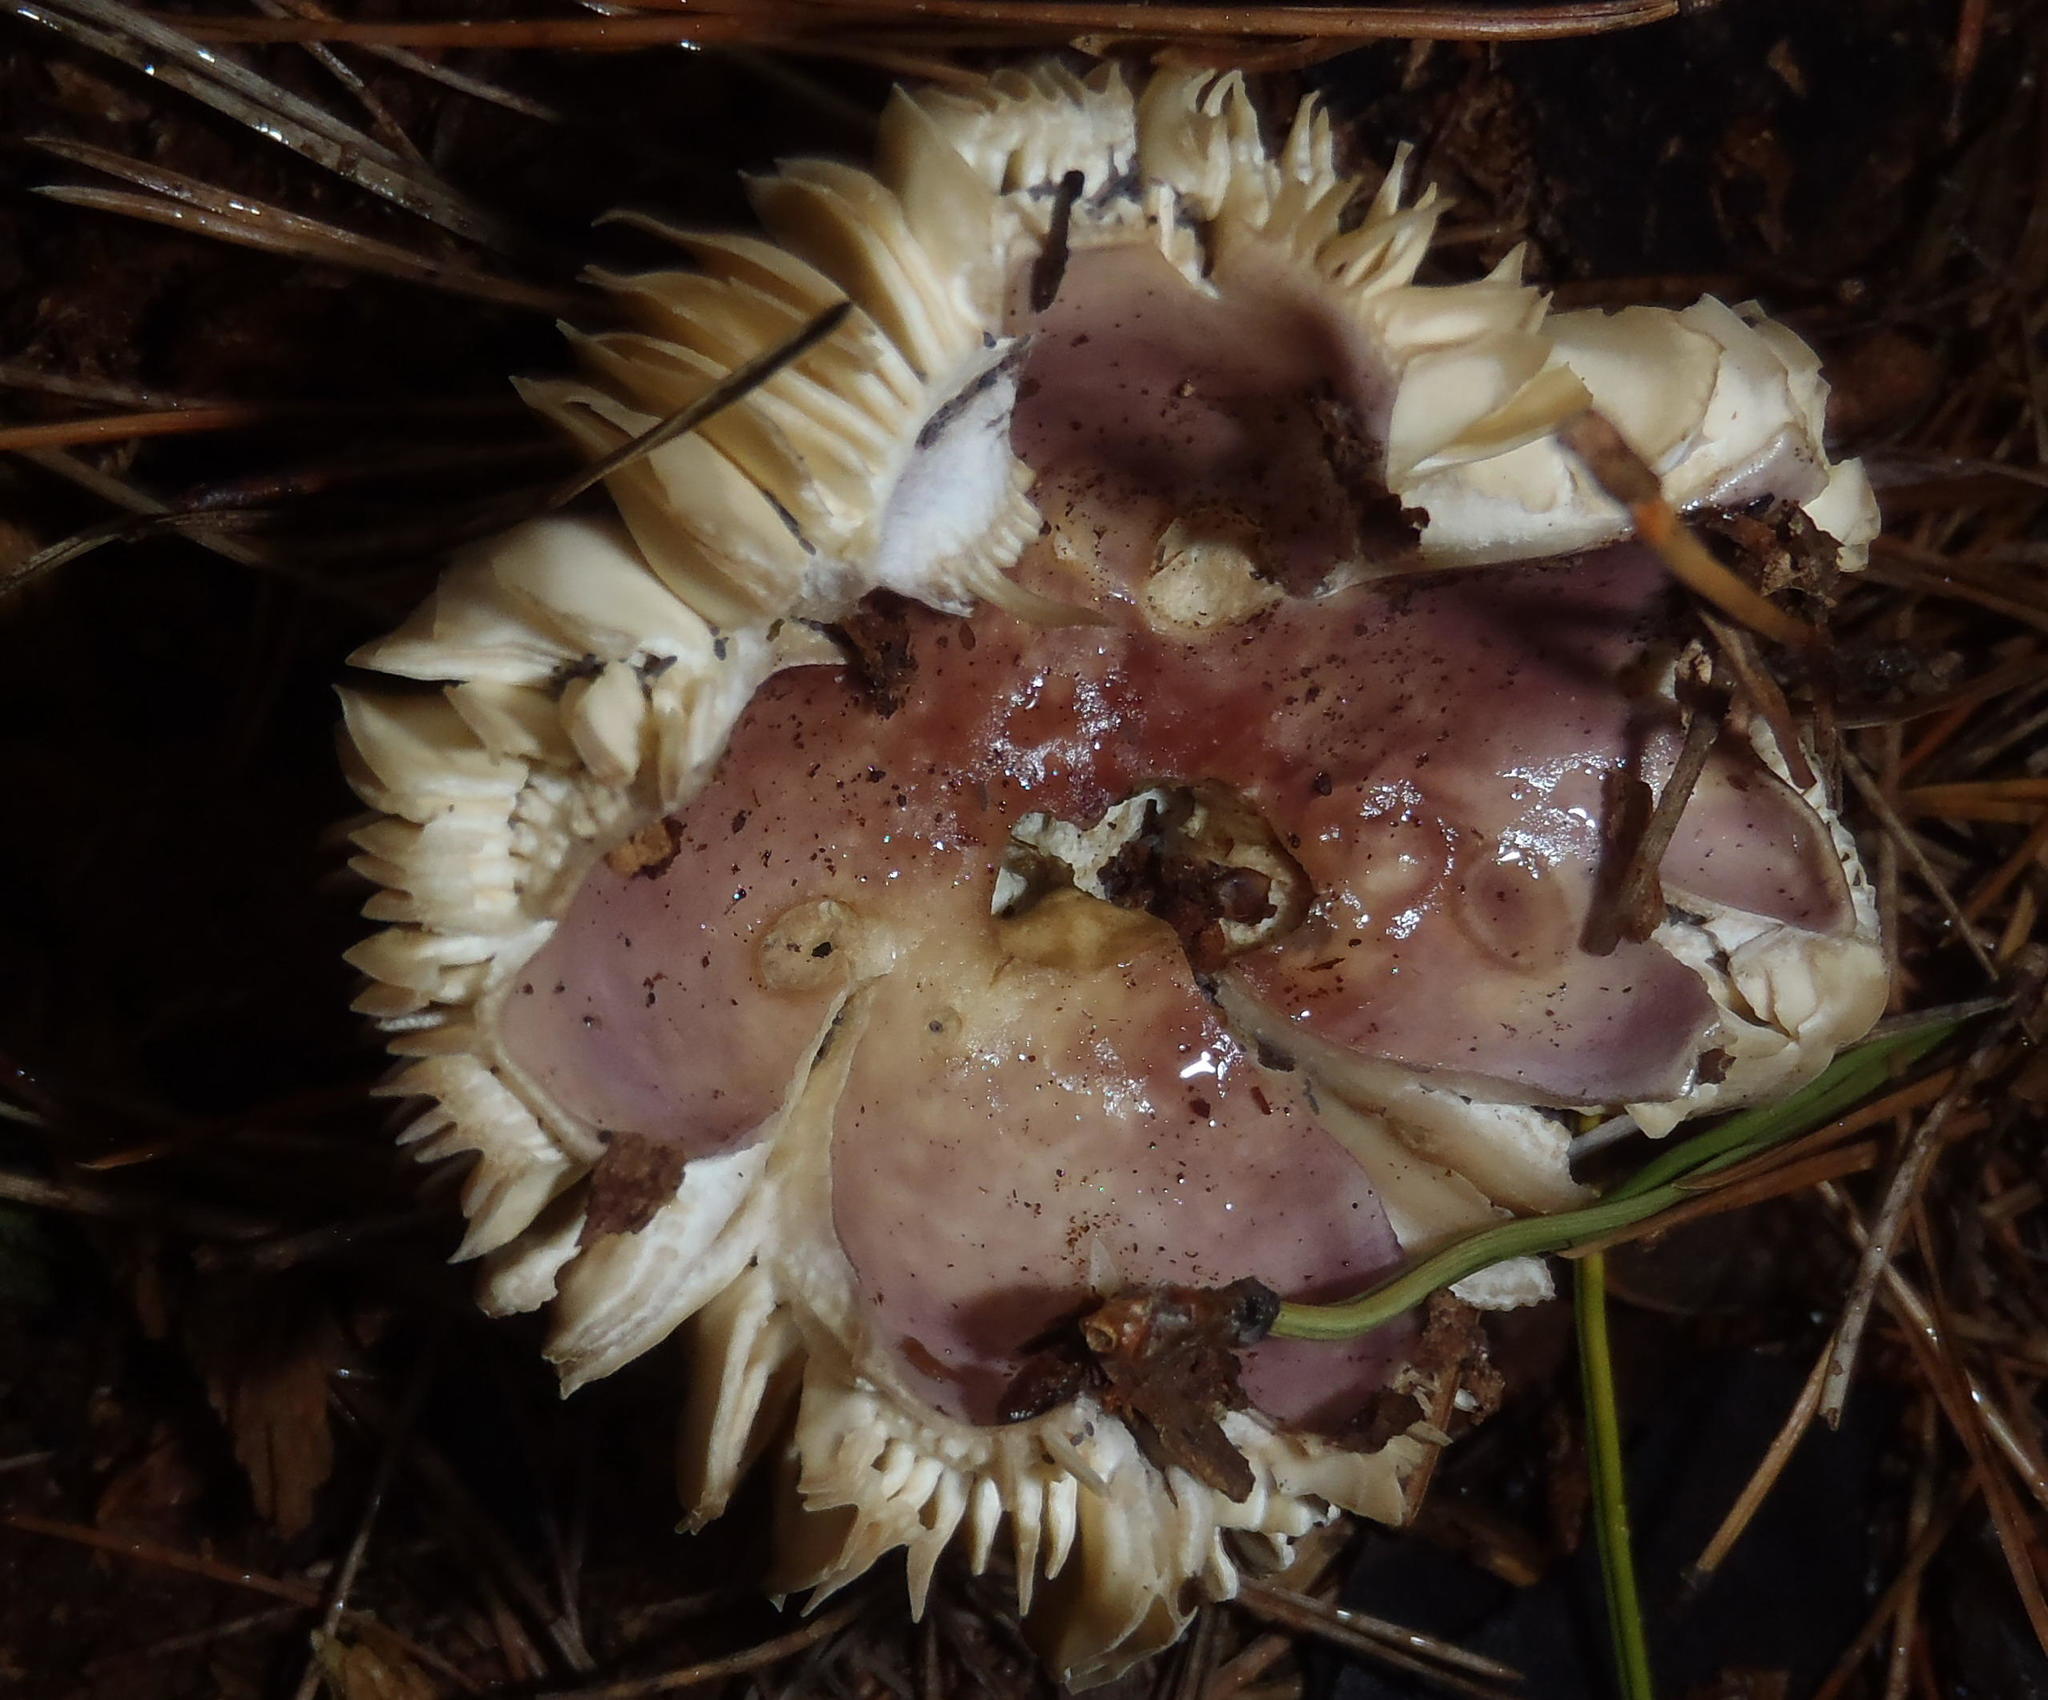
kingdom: Fungi
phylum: Basidiomycota
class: Agaricomycetes
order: Russulales
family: Russulaceae
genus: Russula
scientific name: Russula sardonia
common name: Primrose brittlegill
